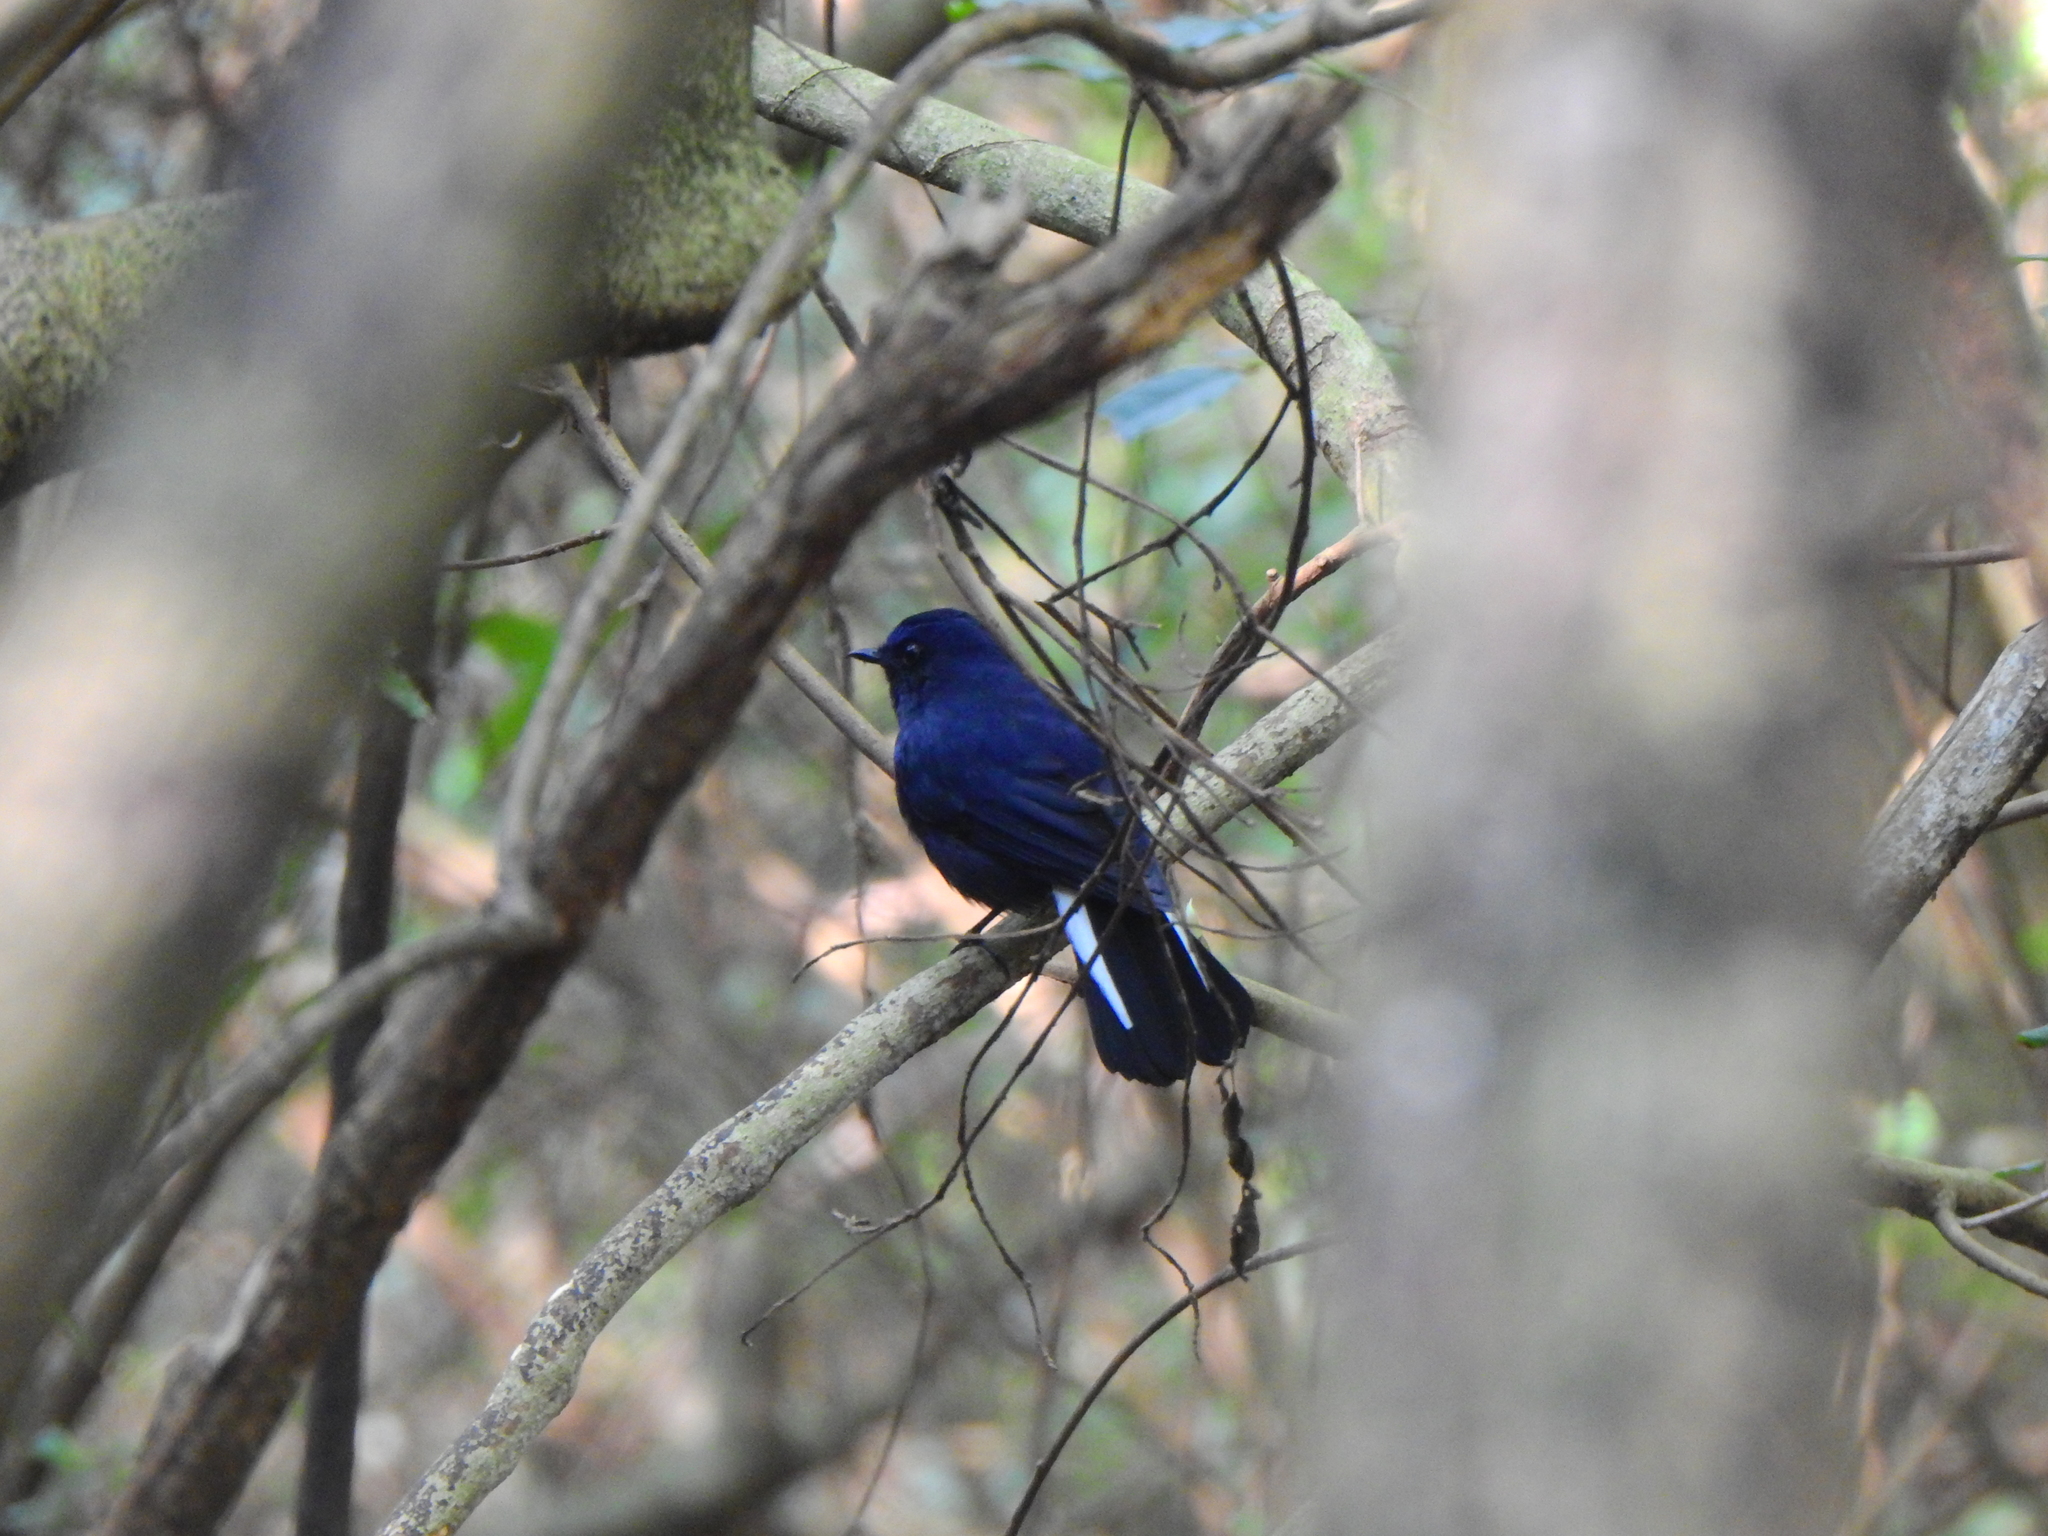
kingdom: Animalia
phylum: Chordata
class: Aves
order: Passeriformes
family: Muscicapidae
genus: Myiomela
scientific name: Myiomela leucura
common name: White-tailed robin
